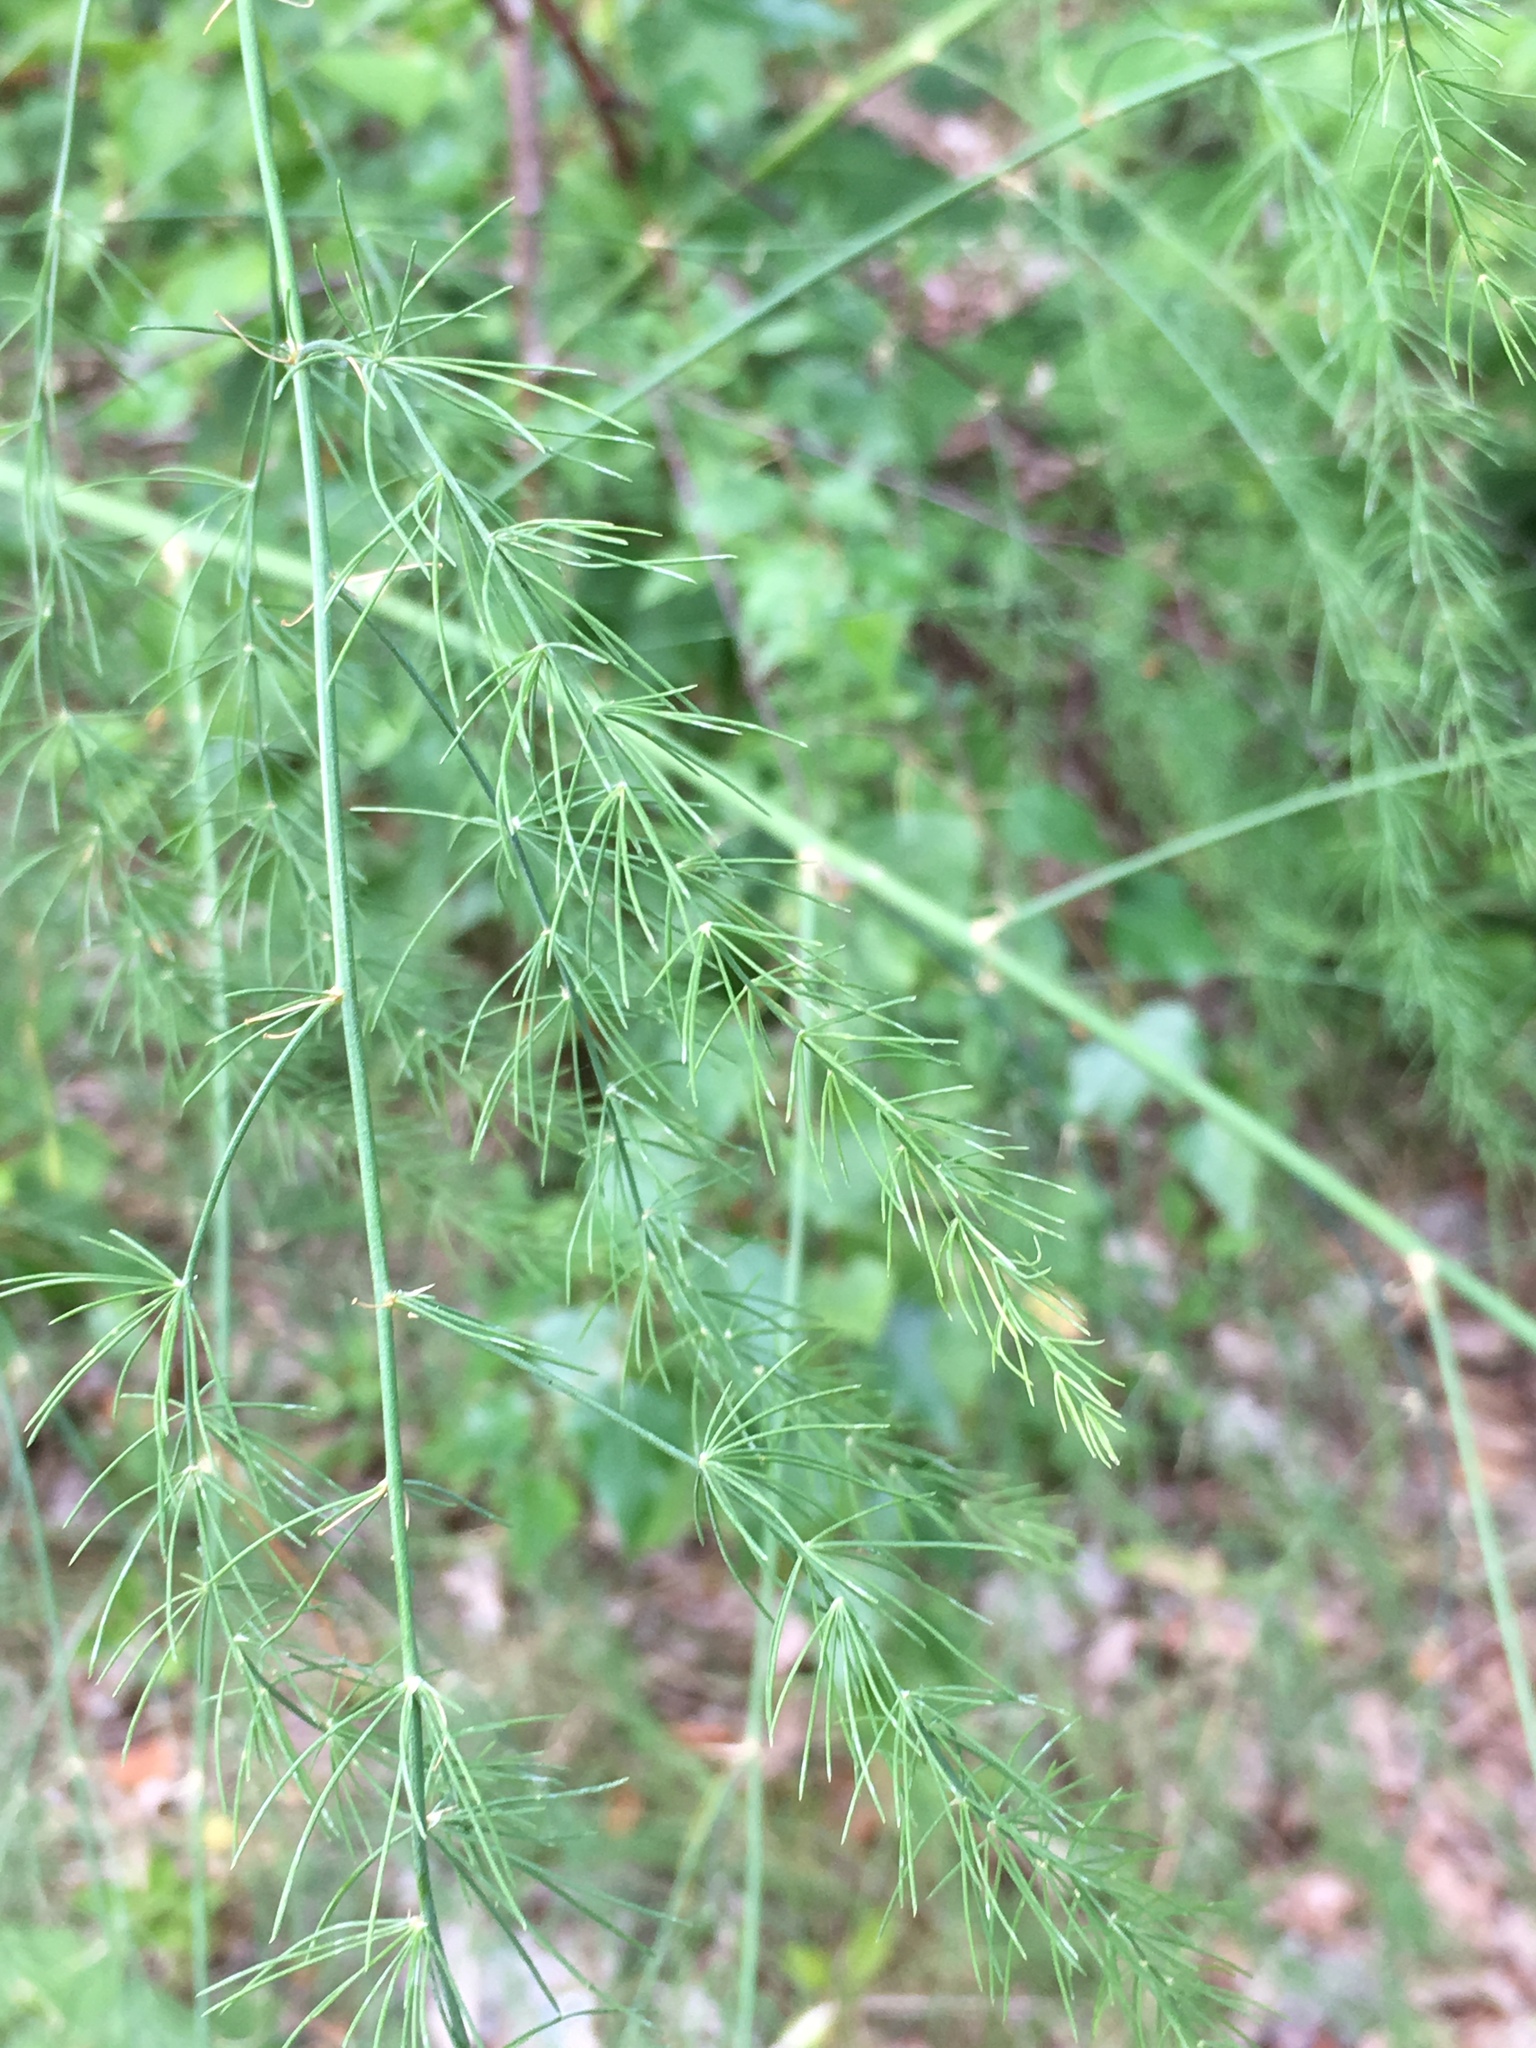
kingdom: Plantae
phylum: Tracheophyta
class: Liliopsida
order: Asparagales
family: Asparagaceae
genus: Asparagus
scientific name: Asparagus officinalis
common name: Garden asparagus
